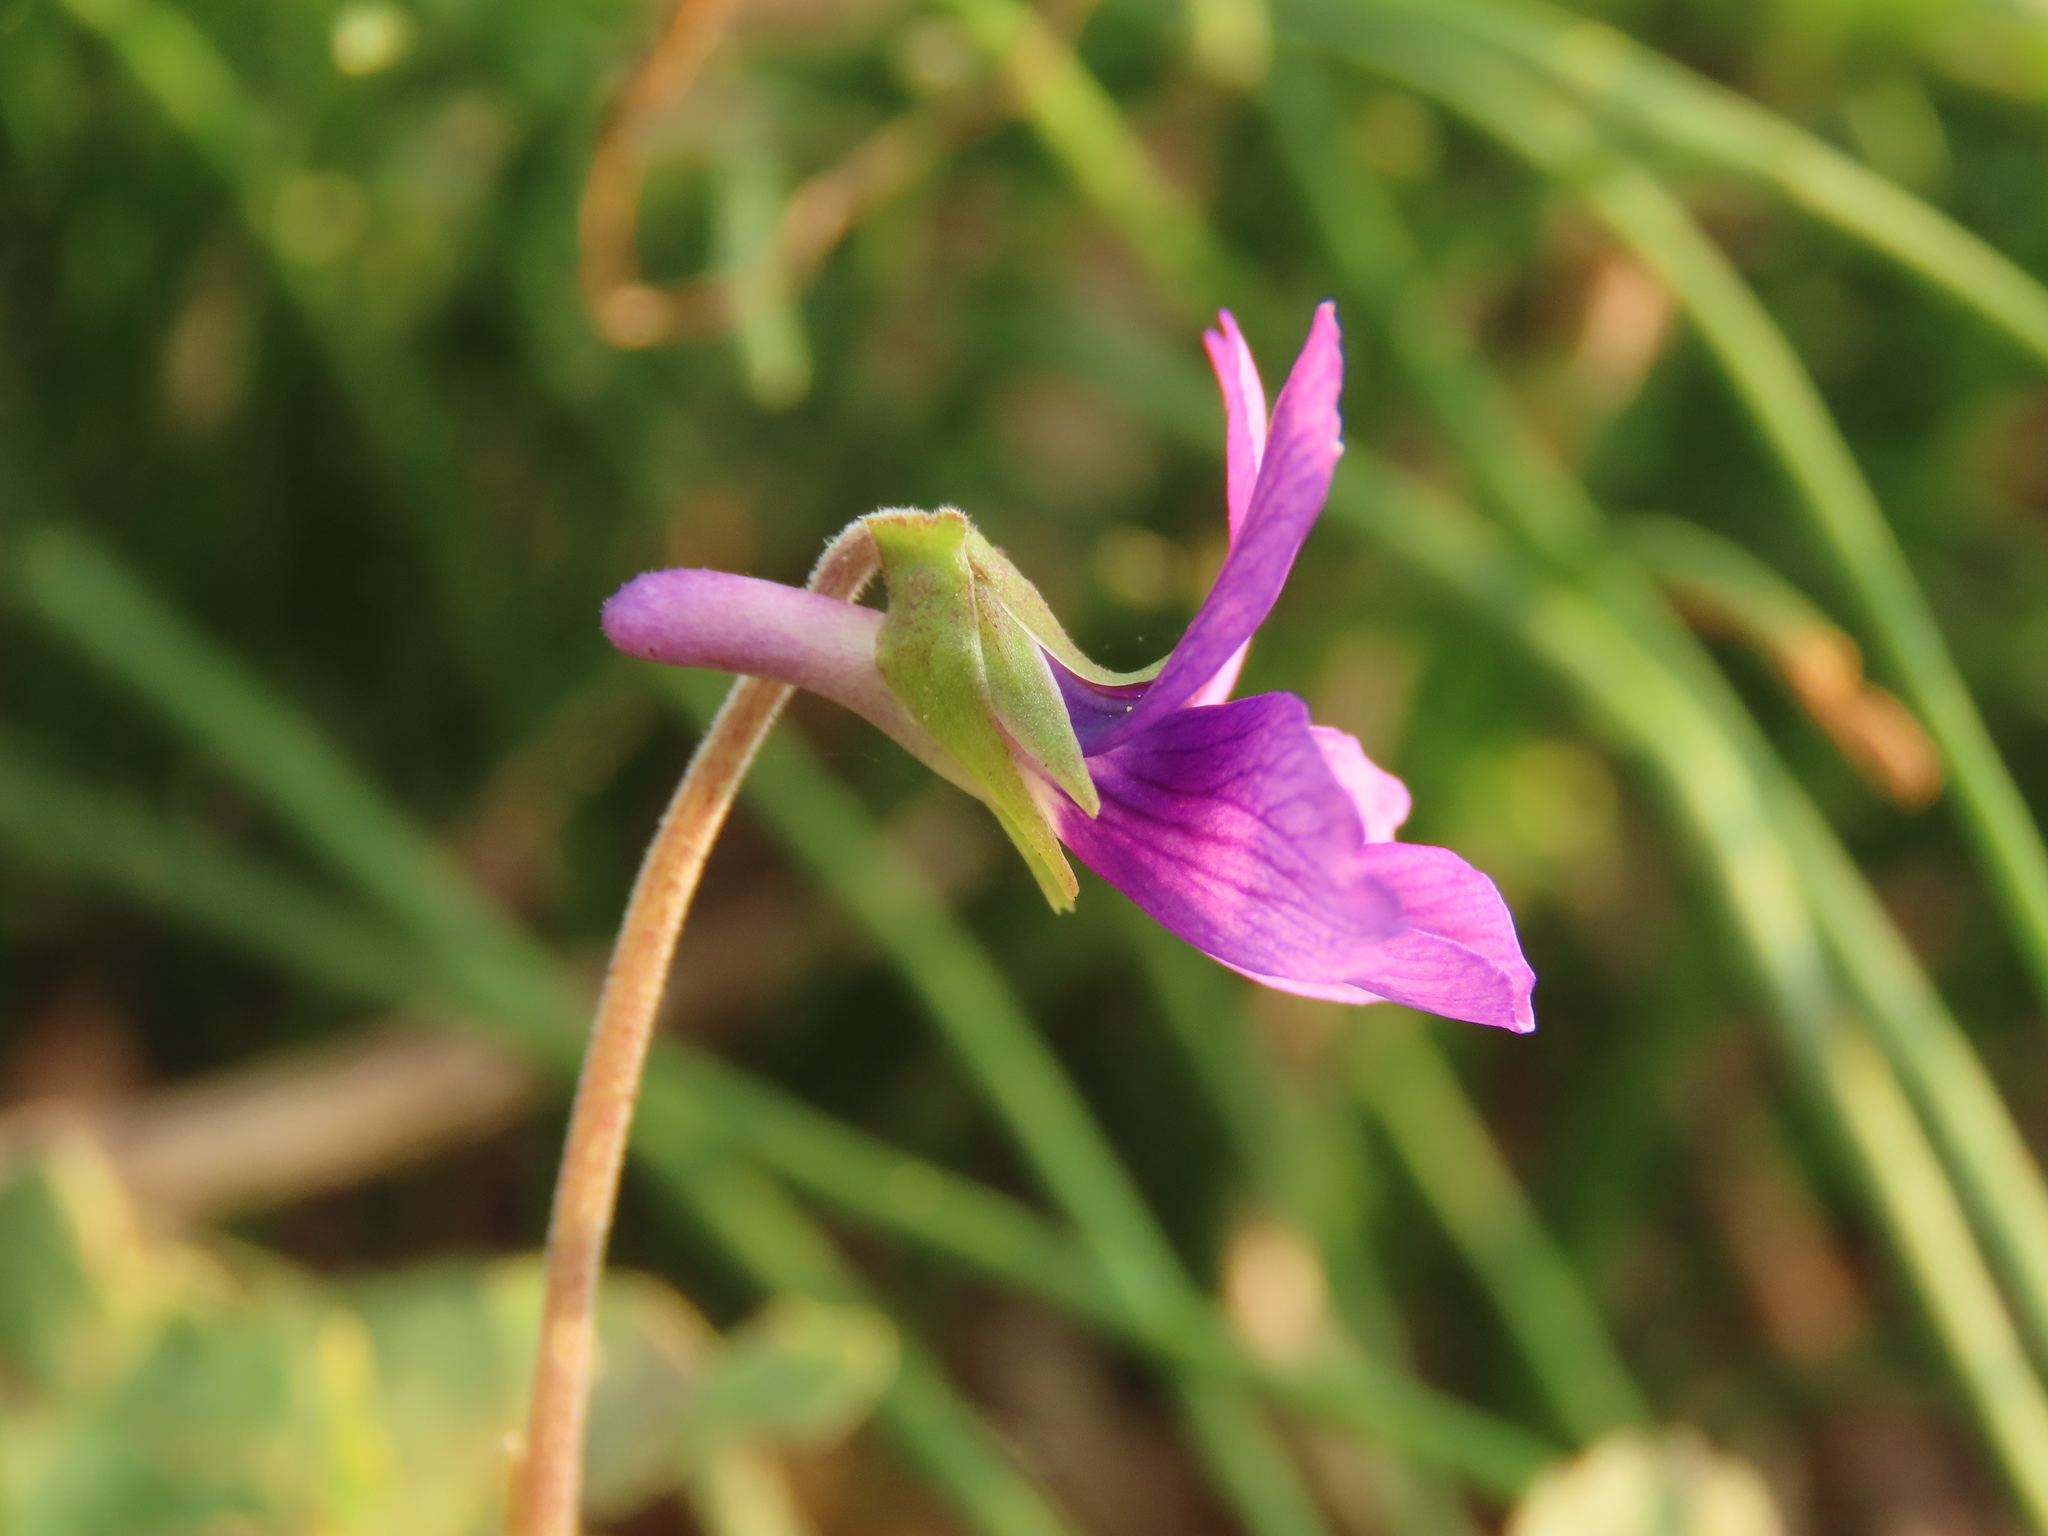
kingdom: Plantae
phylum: Tracheophyta
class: Magnoliopsida
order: Malpighiales
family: Violaceae
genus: Viola
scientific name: Viola
